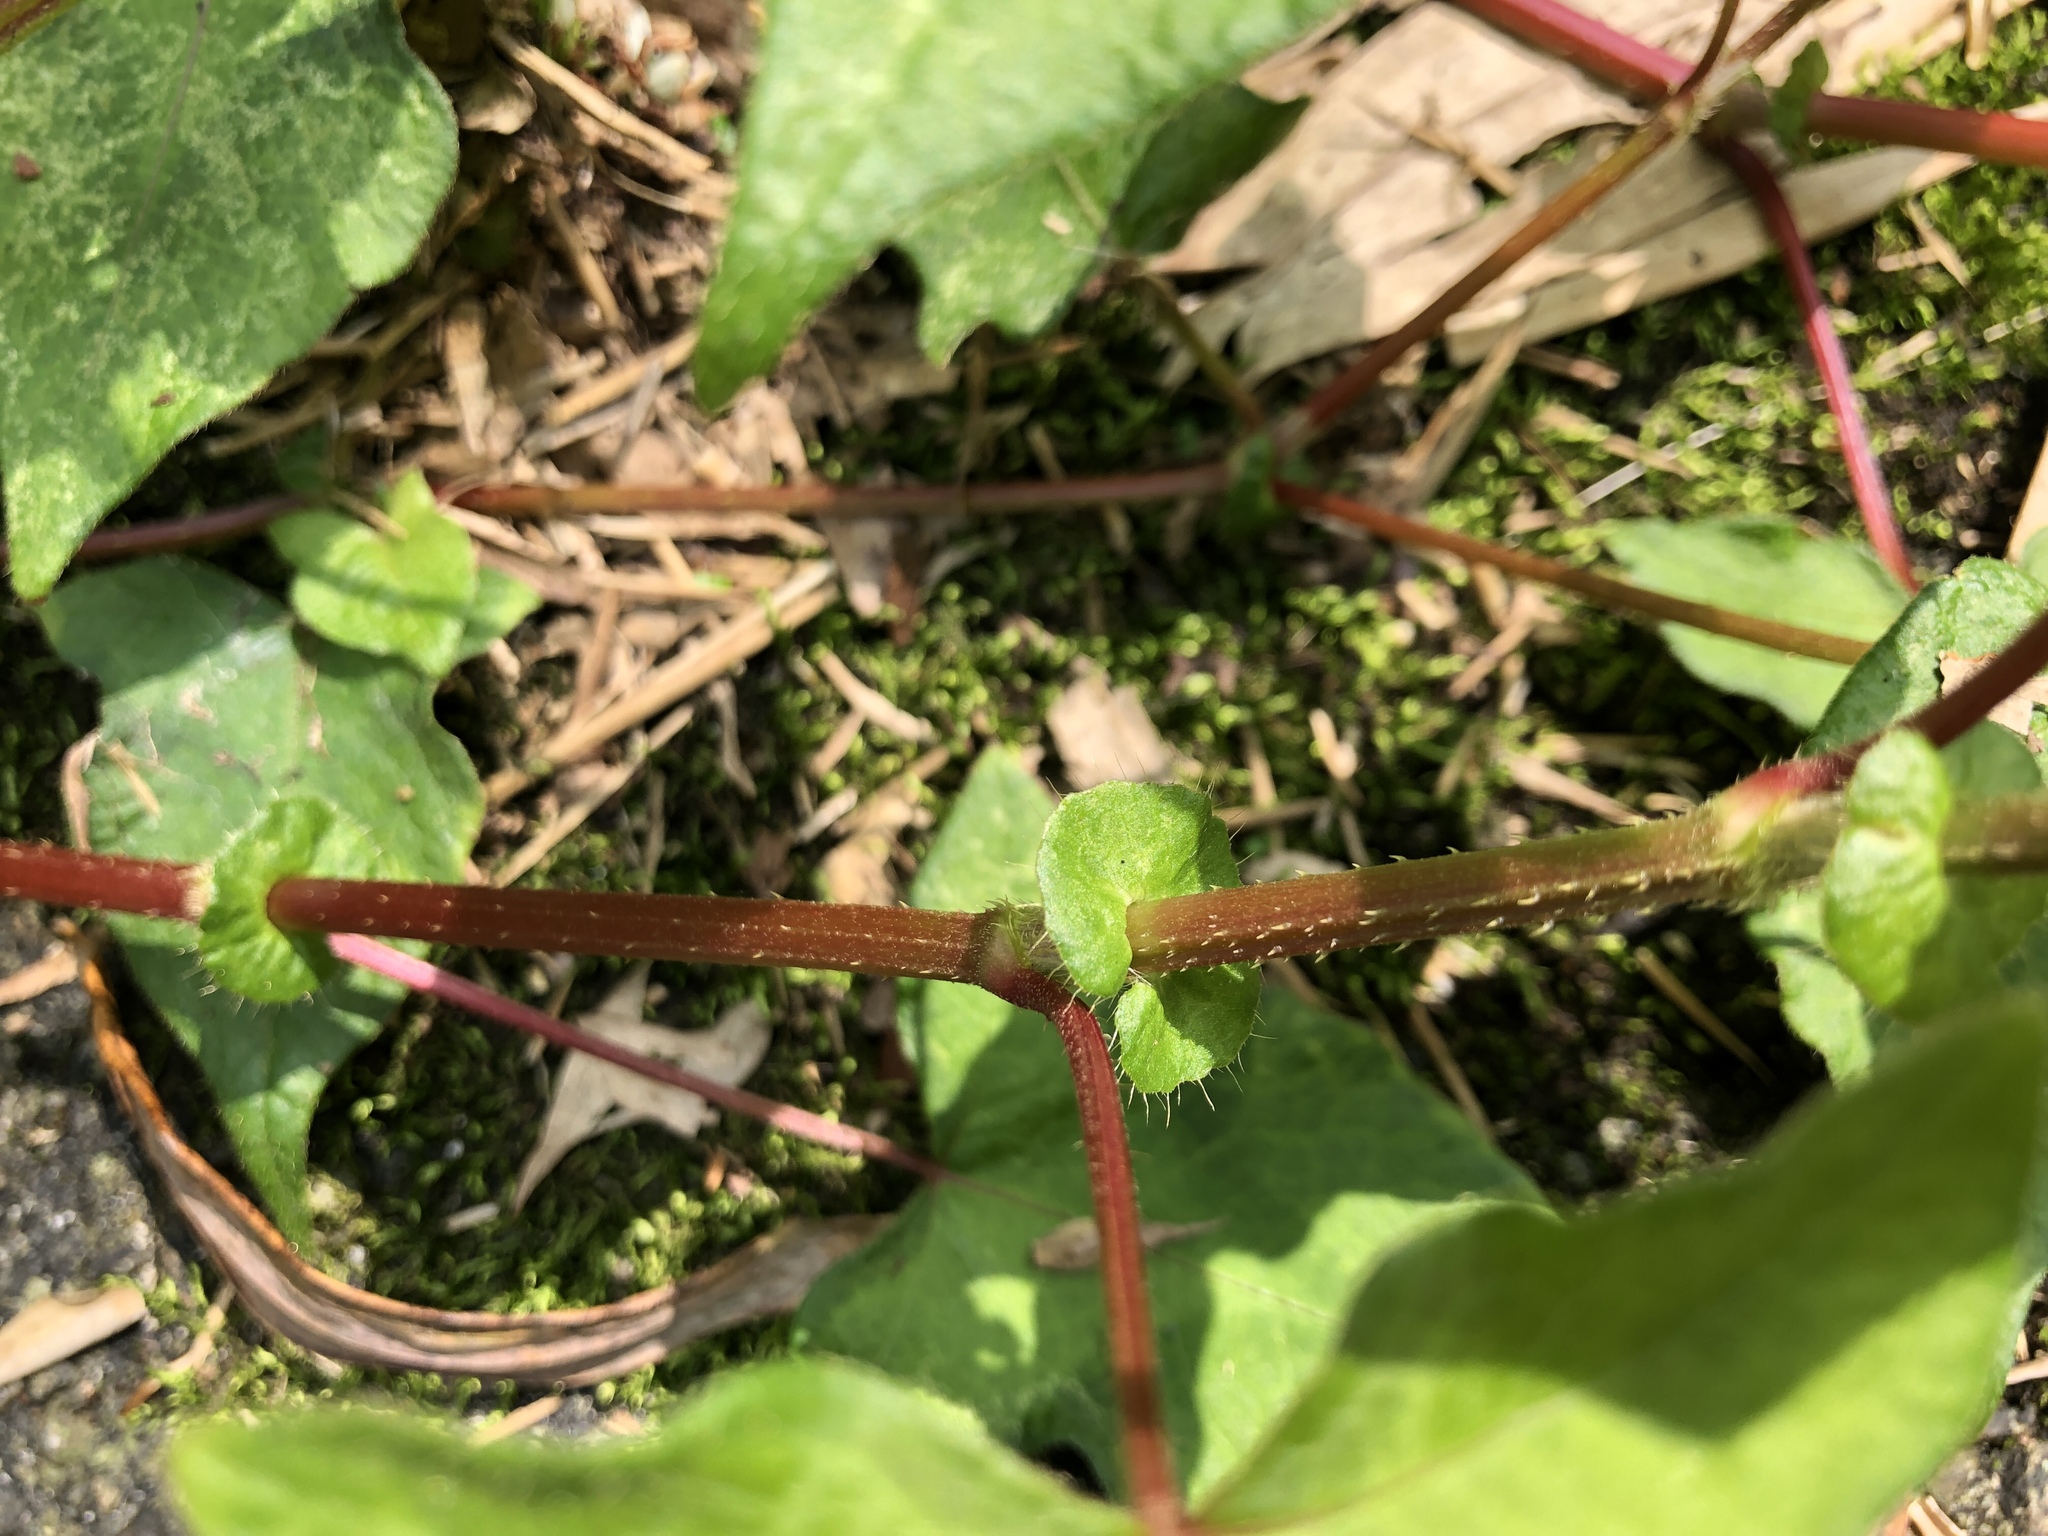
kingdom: Plantae
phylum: Tracheophyta
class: Magnoliopsida
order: Caryophyllales
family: Polygonaceae
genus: Persicaria
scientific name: Persicaria biconvexa
